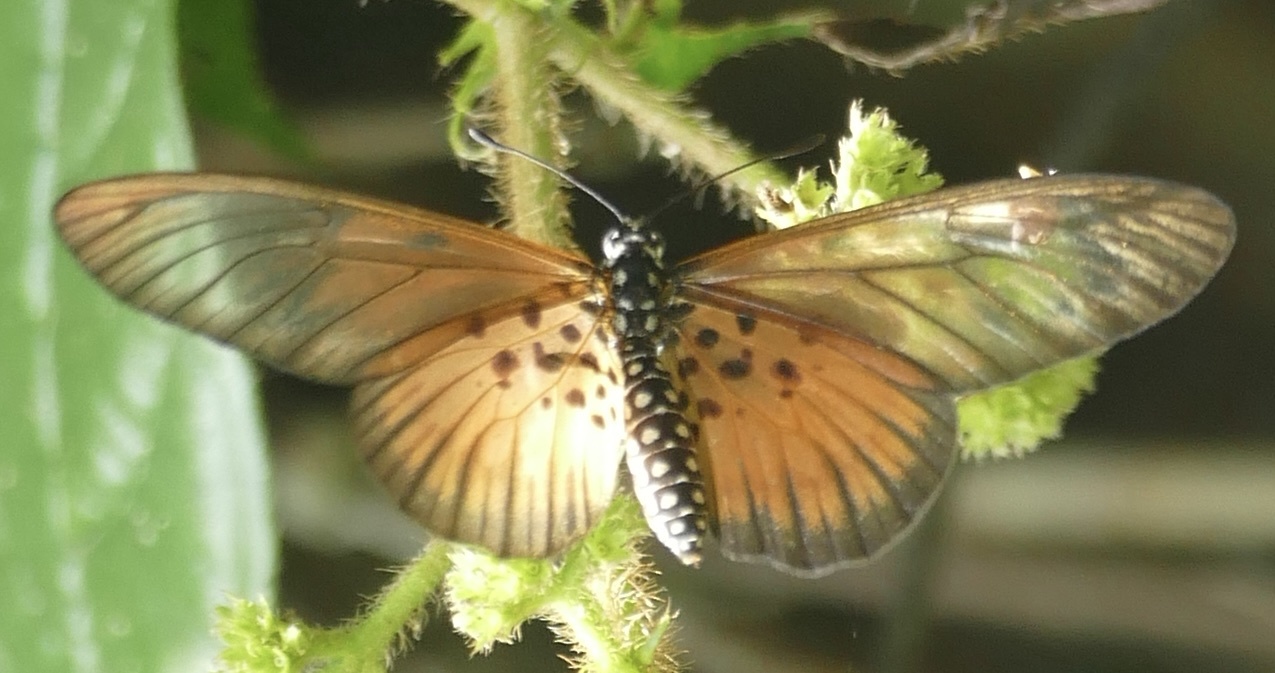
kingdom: Animalia
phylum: Arthropoda
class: Insecta
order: Lepidoptera
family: Nymphalidae
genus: Acraea
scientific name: Acraea
